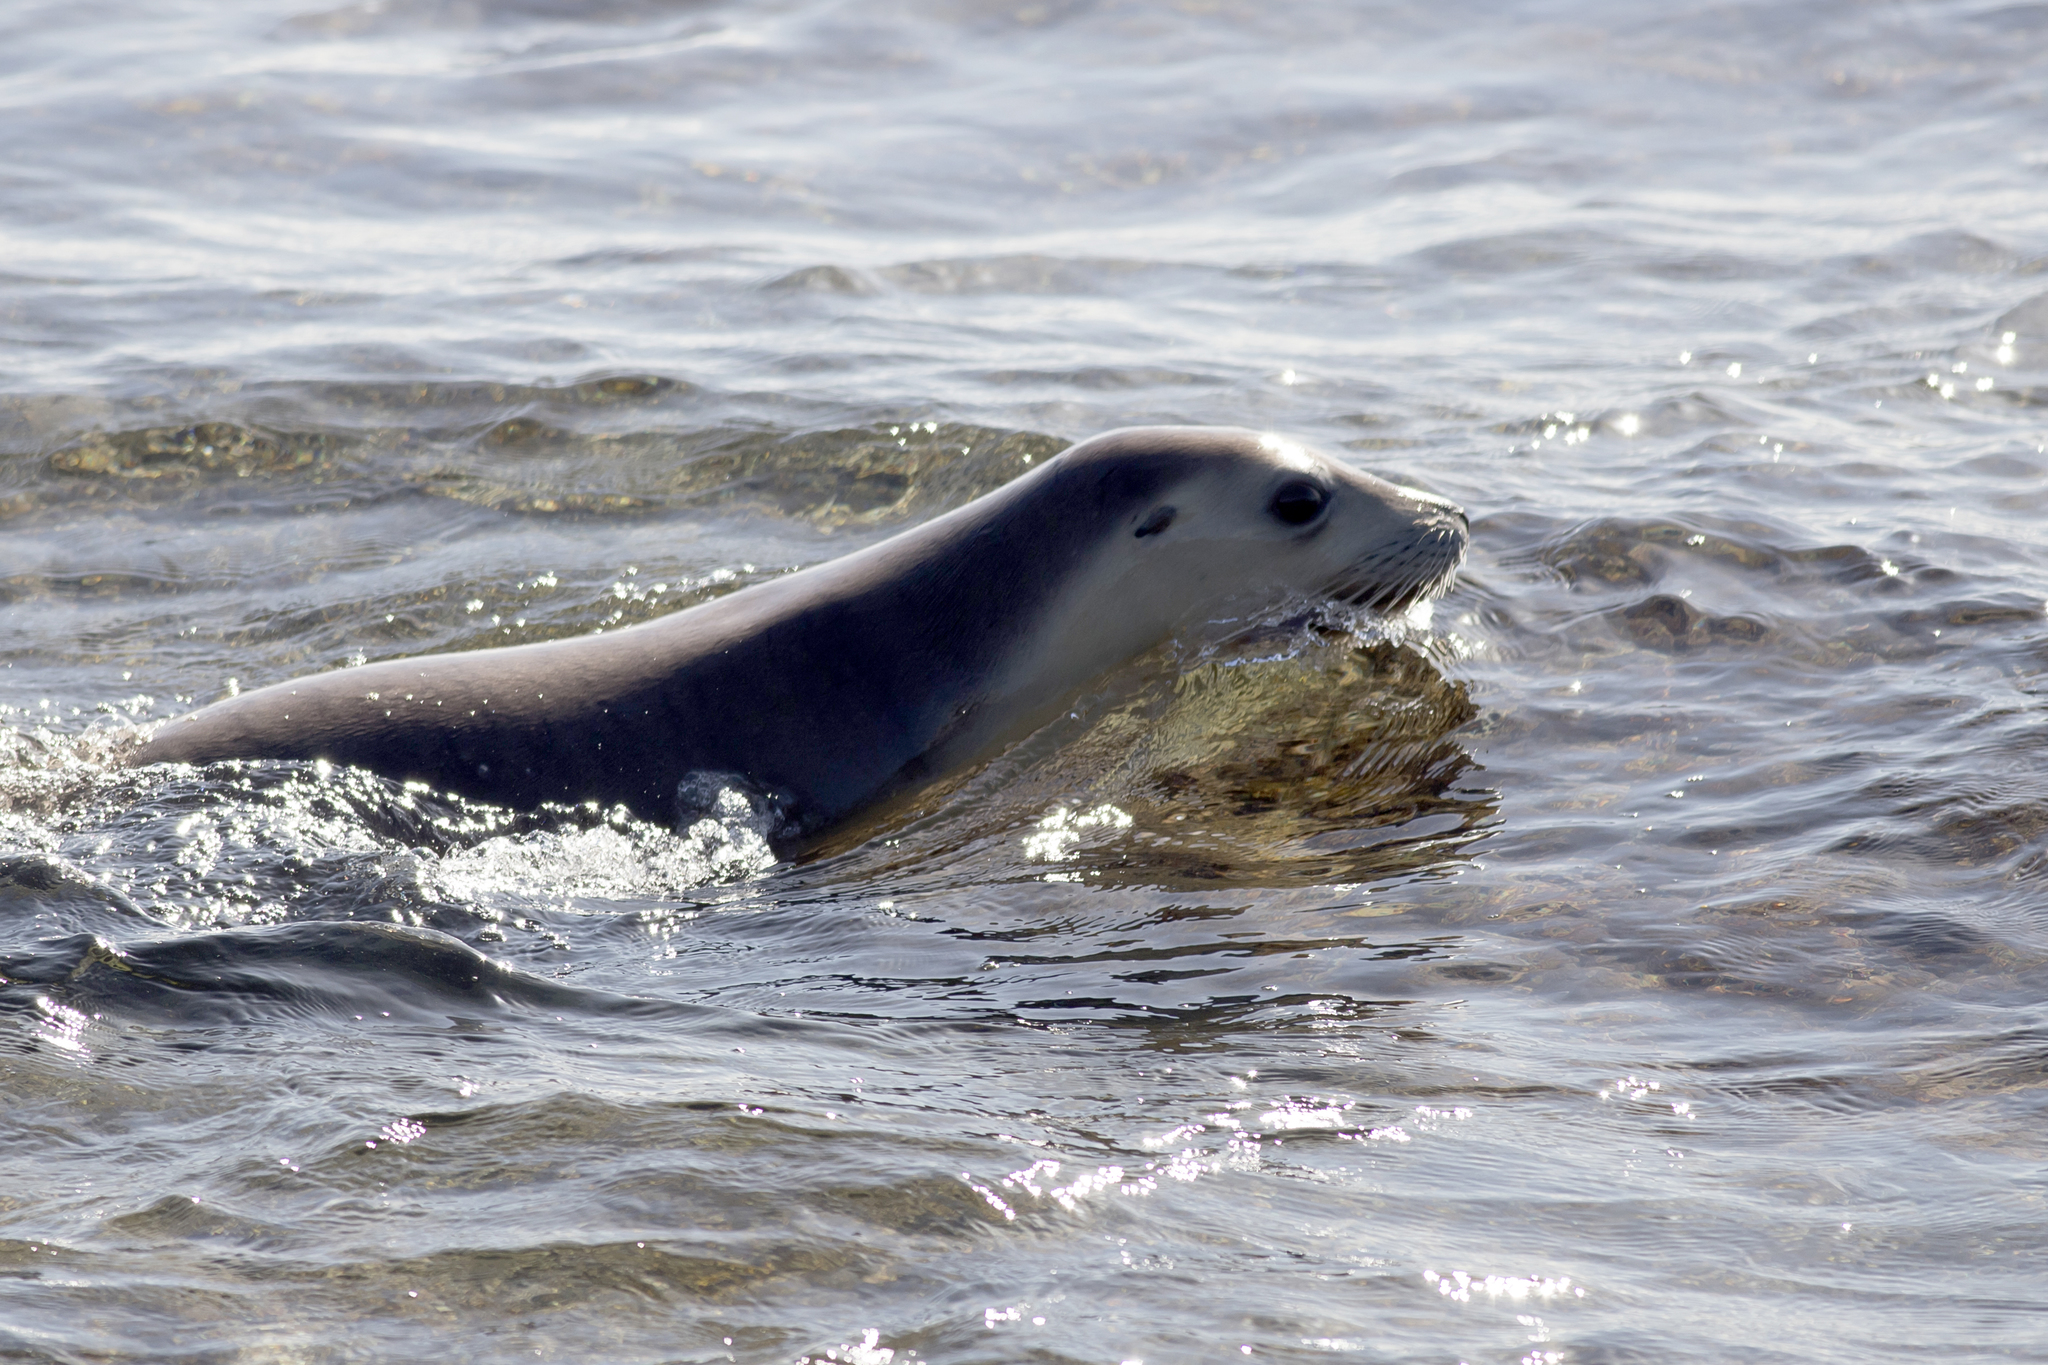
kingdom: Animalia
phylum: Chordata
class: Mammalia
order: Carnivora
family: Otariidae
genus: Neophoca
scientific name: Neophoca cinerea
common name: Australian sea lion
